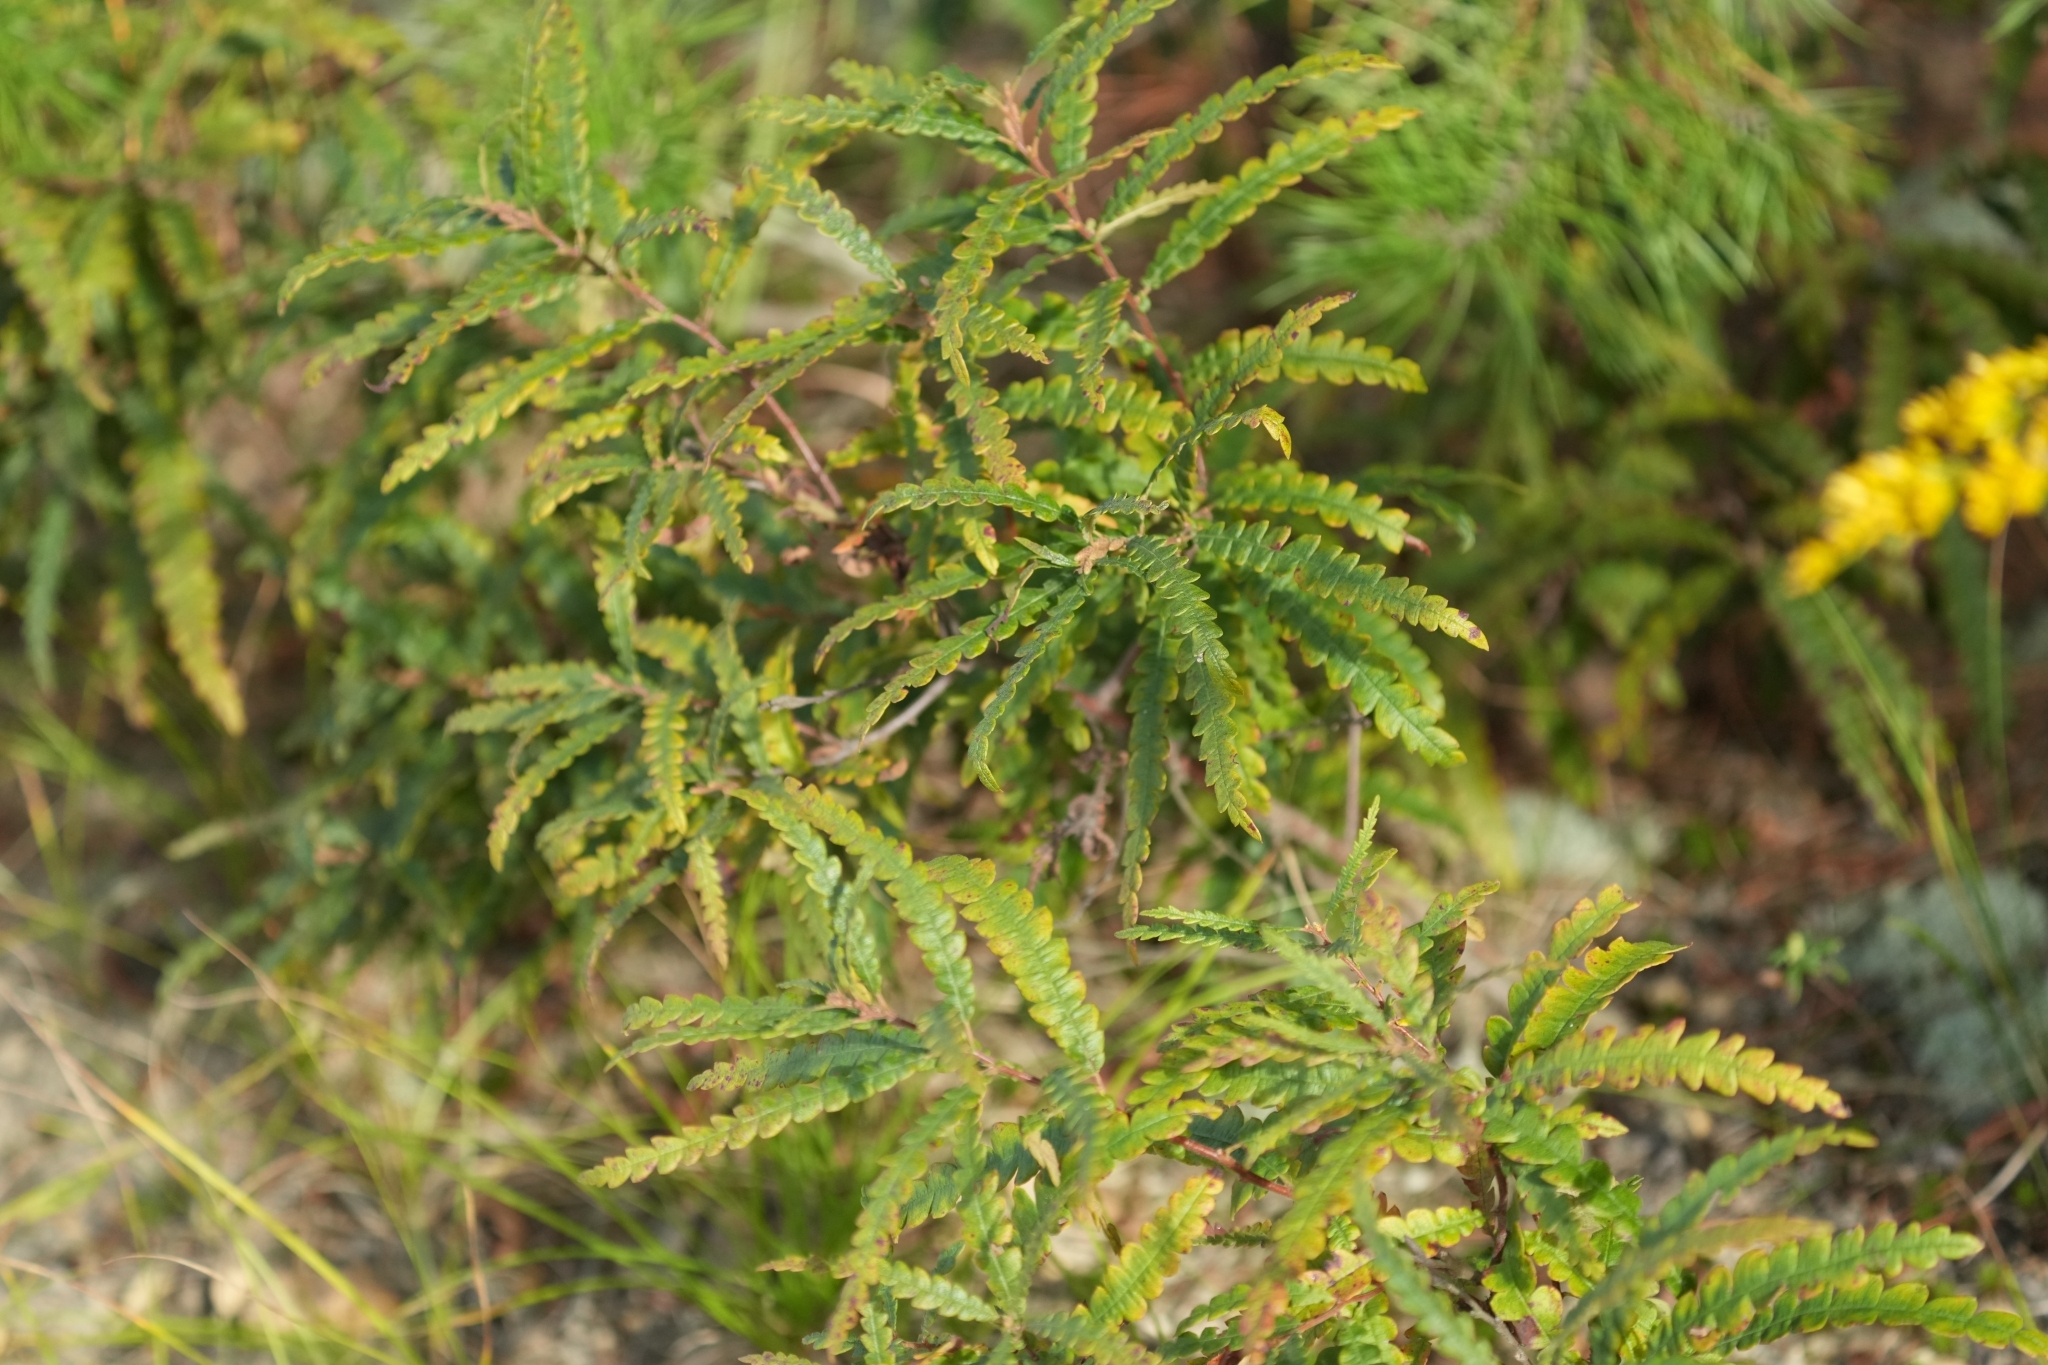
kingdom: Plantae
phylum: Tracheophyta
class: Magnoliopsida
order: Fagales
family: Myricaceae
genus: Comptonia
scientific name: Comptonia peregrina
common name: Sweet-fern
